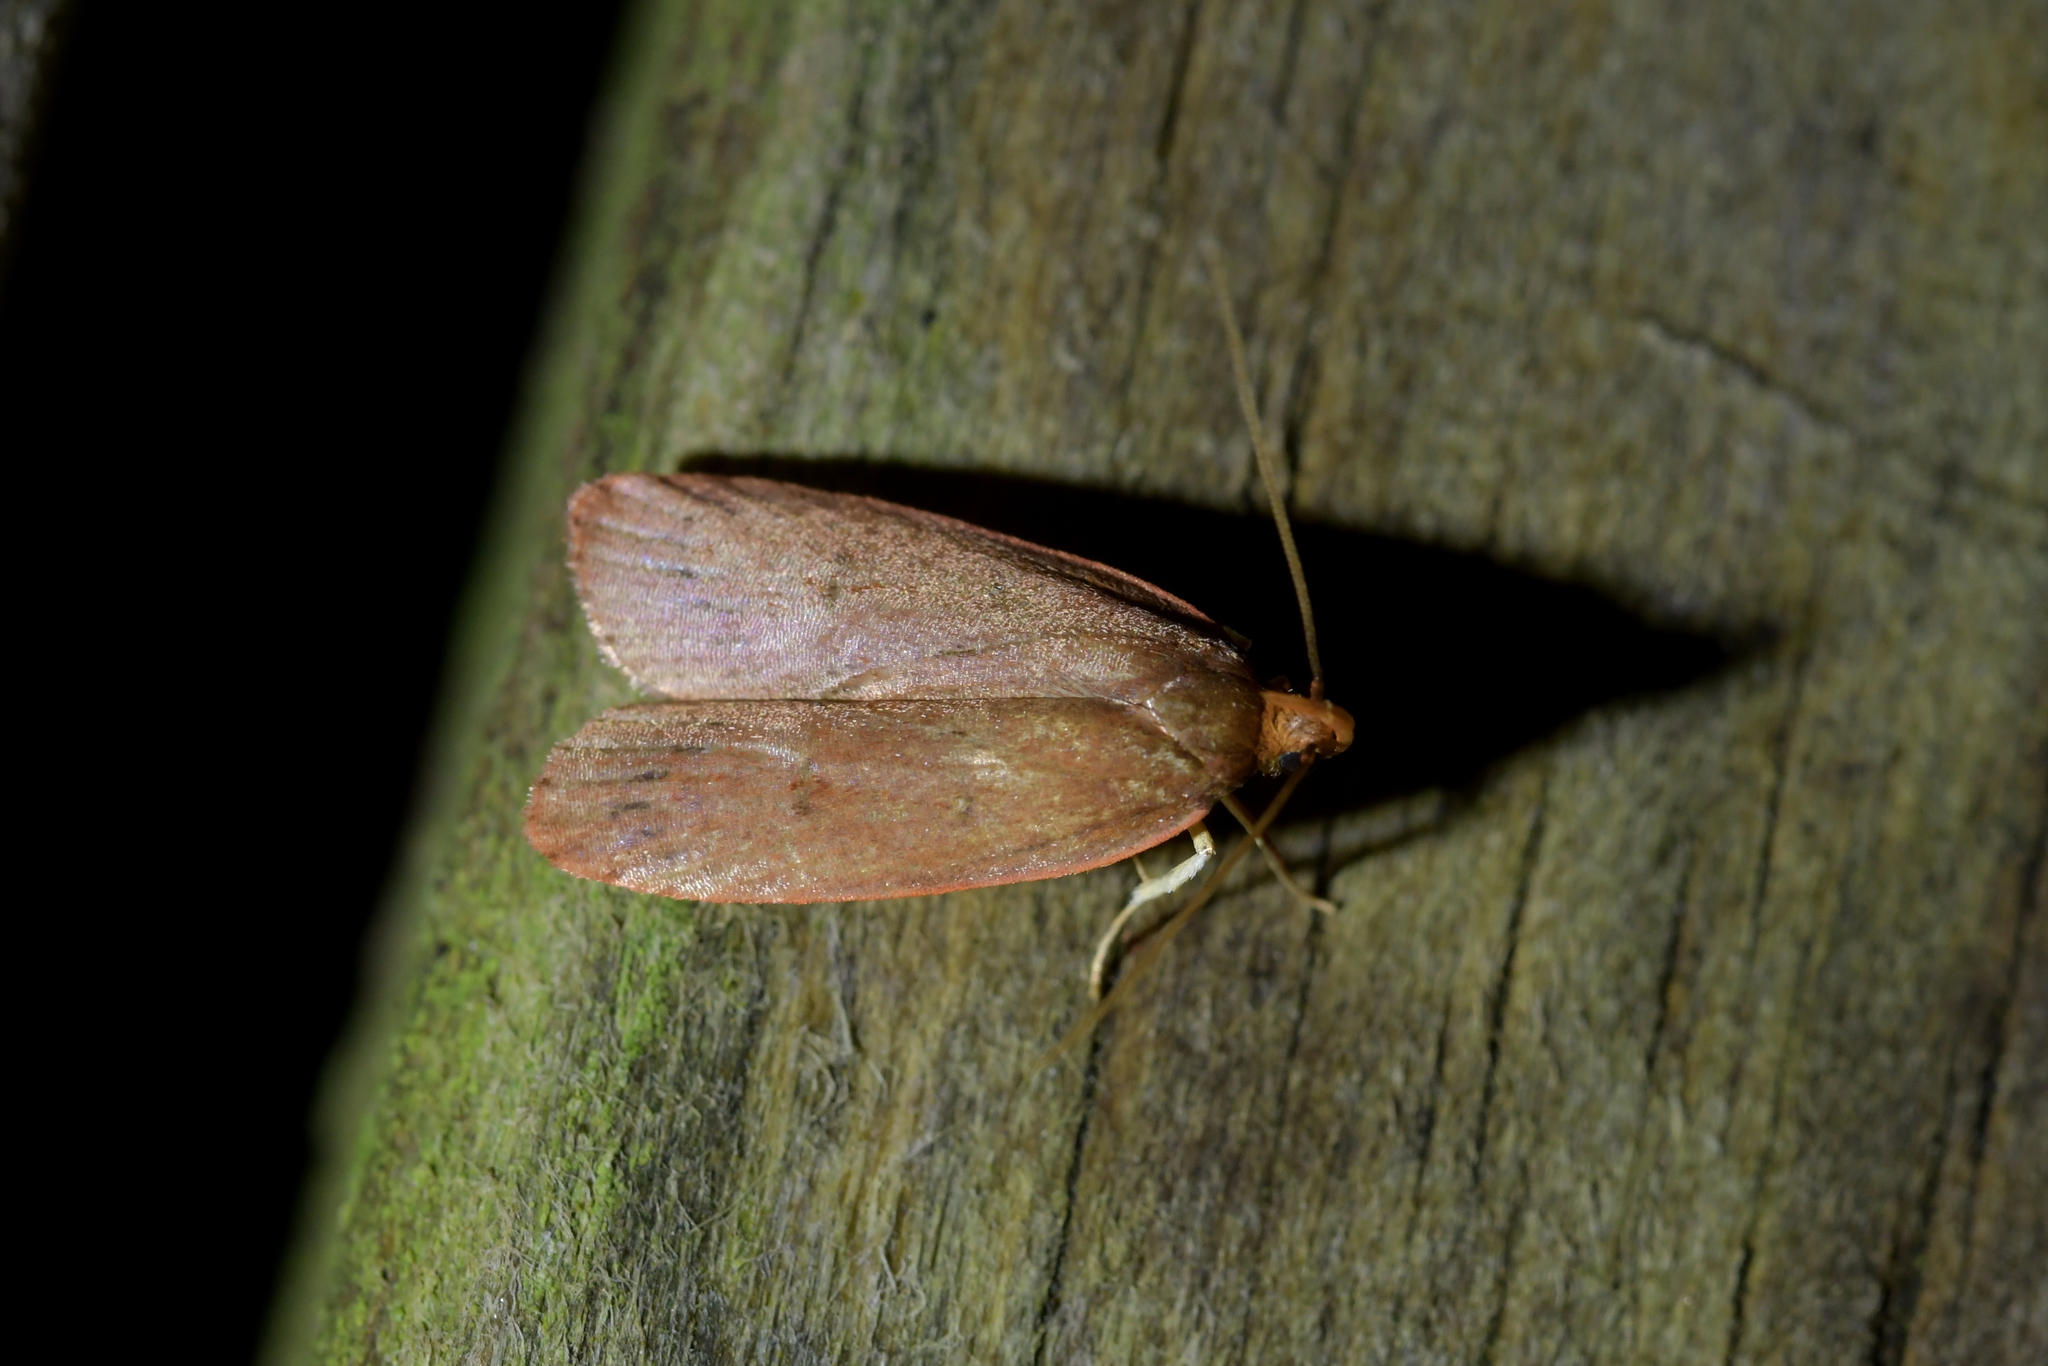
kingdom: Animalia
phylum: Arthropoda
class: Insecta
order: Lepidoptera
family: Depressariidae
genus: Cryptolechia
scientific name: Cryptolechia rhodobapta
